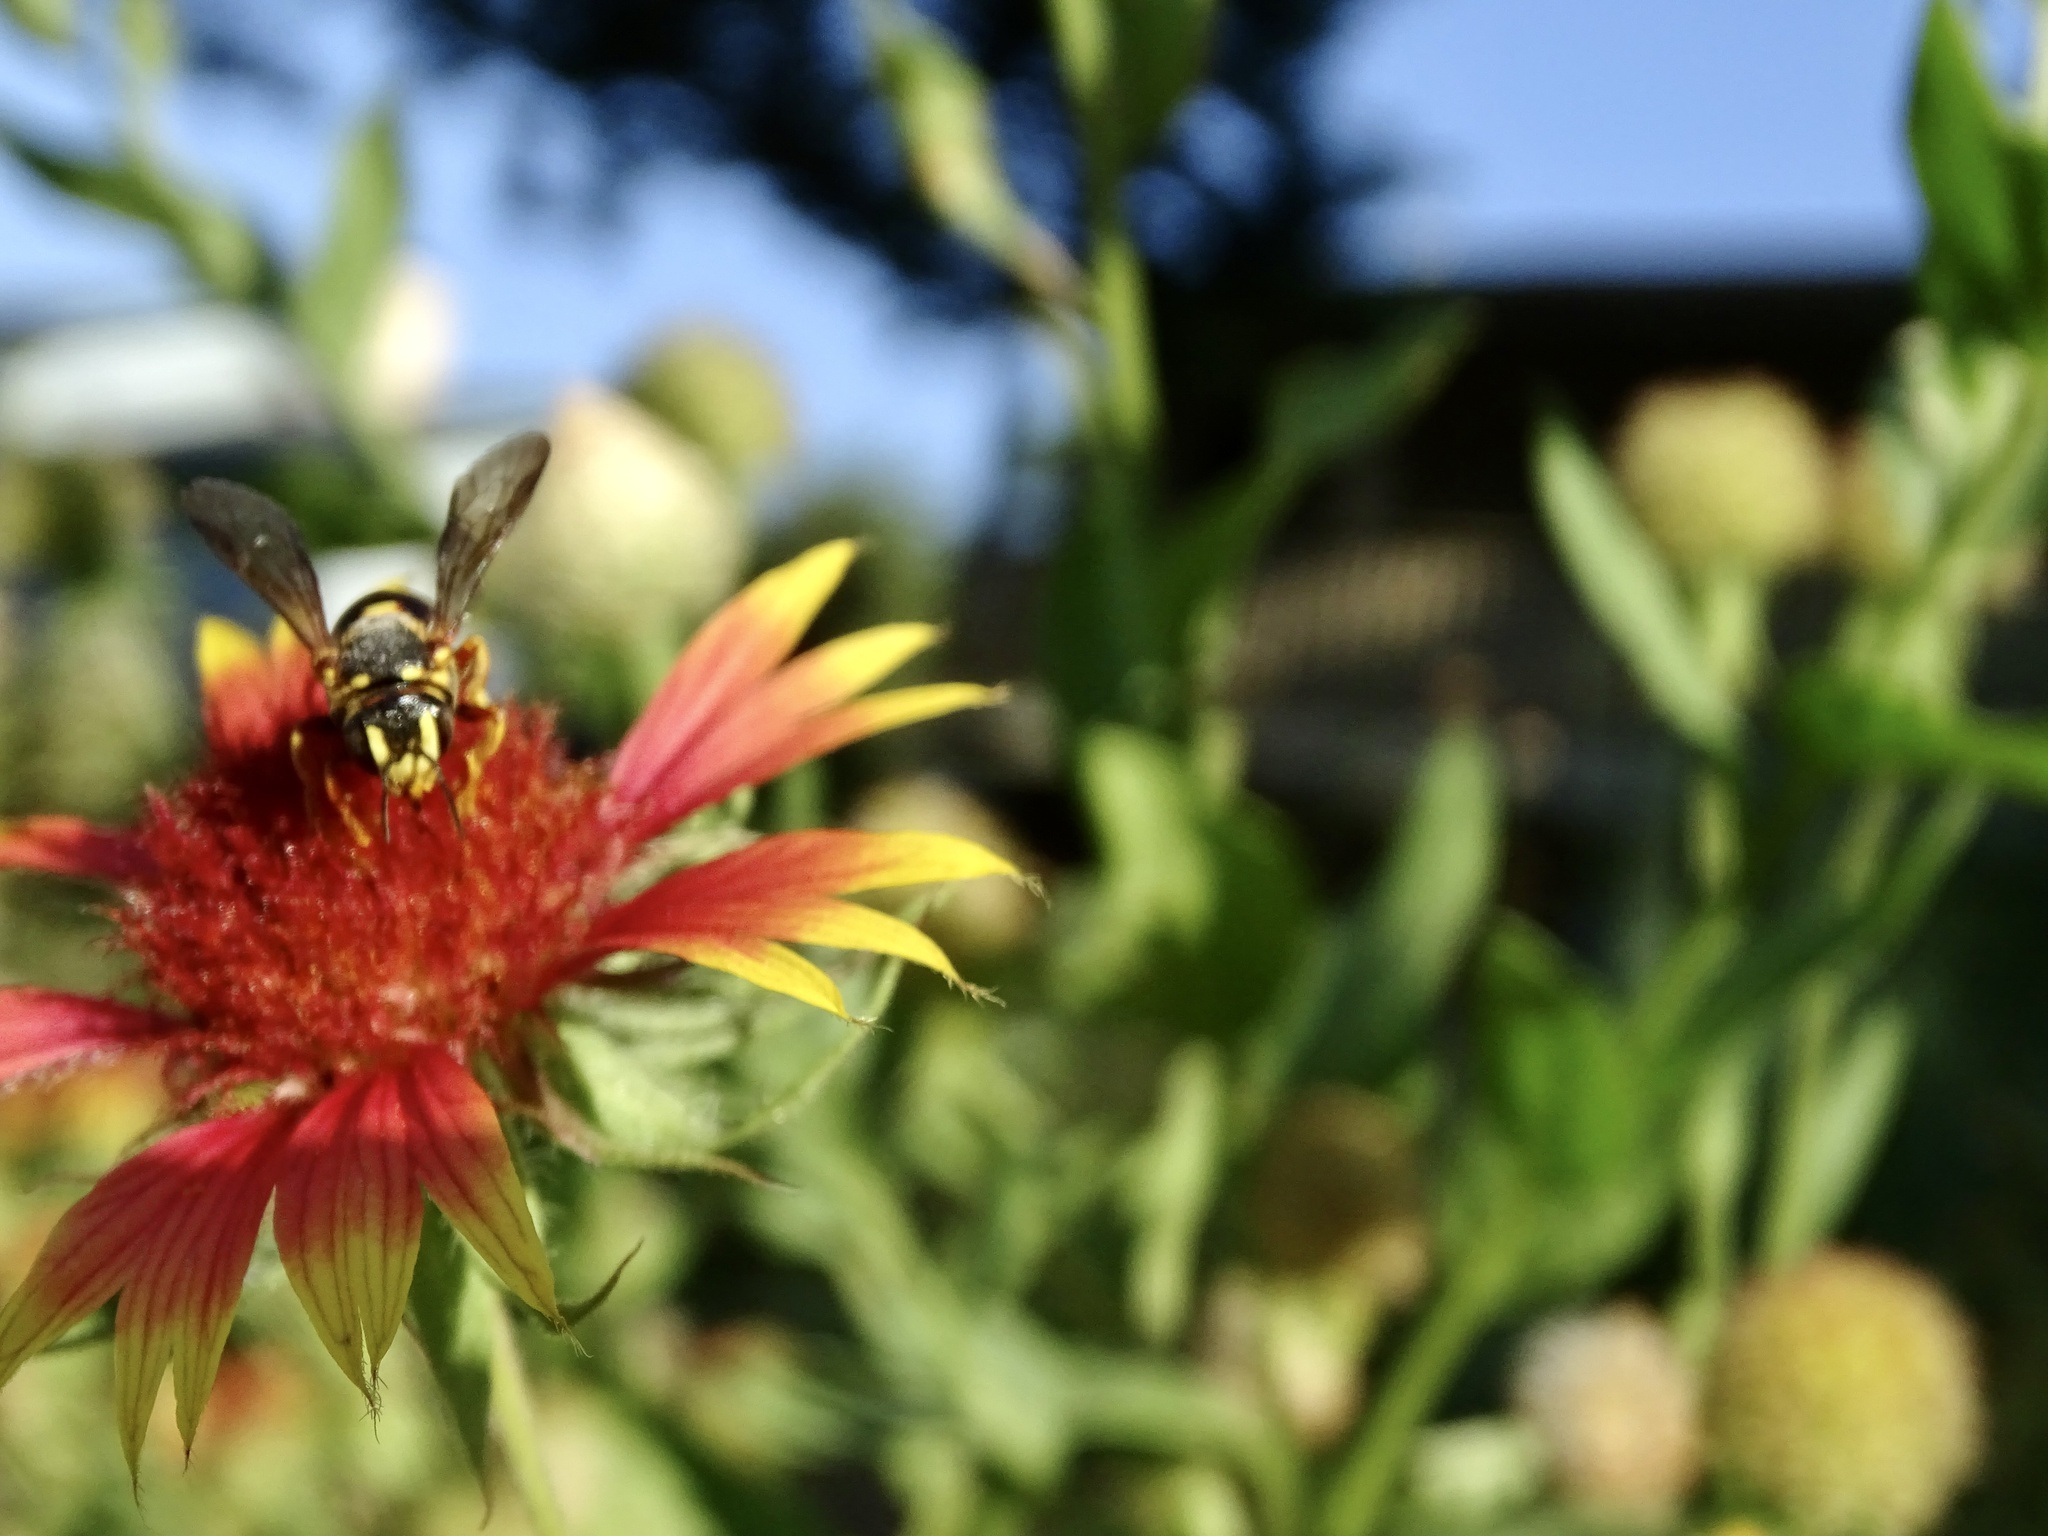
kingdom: Animalia
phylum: Arthropoda
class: Insecta
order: Hymenoptera
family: Megachilidae
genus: Dianthidium
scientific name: Dianthidium curvatum
